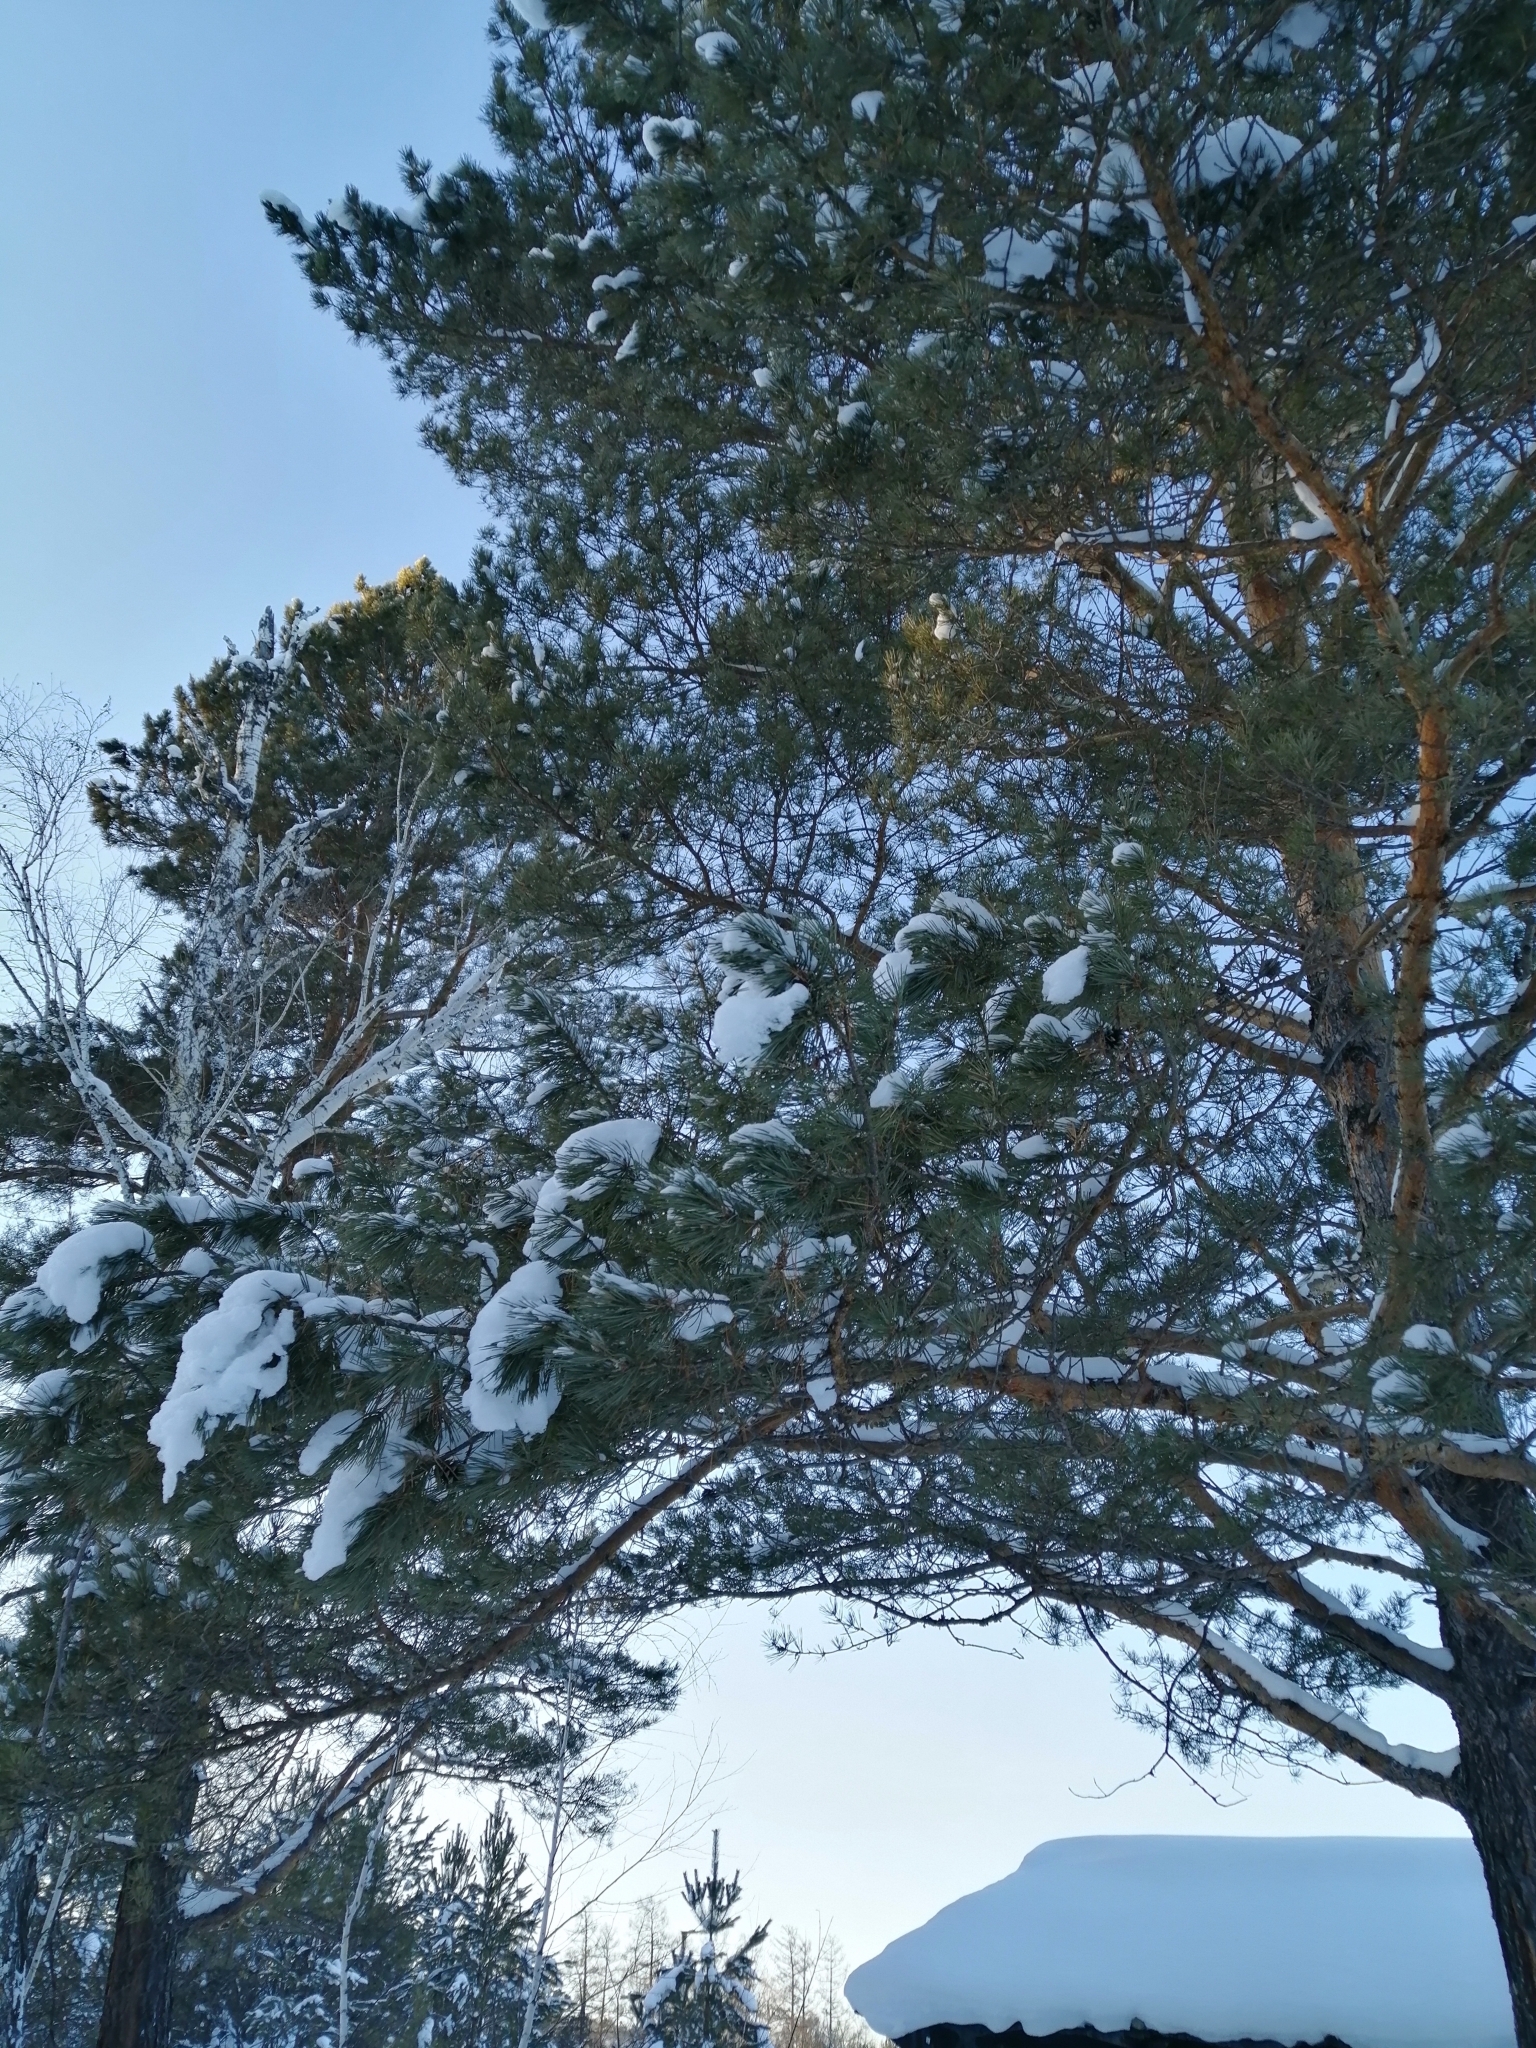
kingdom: Plantae
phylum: Tracheophyta
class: Pinopsida
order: Pinales
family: Pinaceae
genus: Pinus
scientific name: Pinus sylvestris
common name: Scots pine
